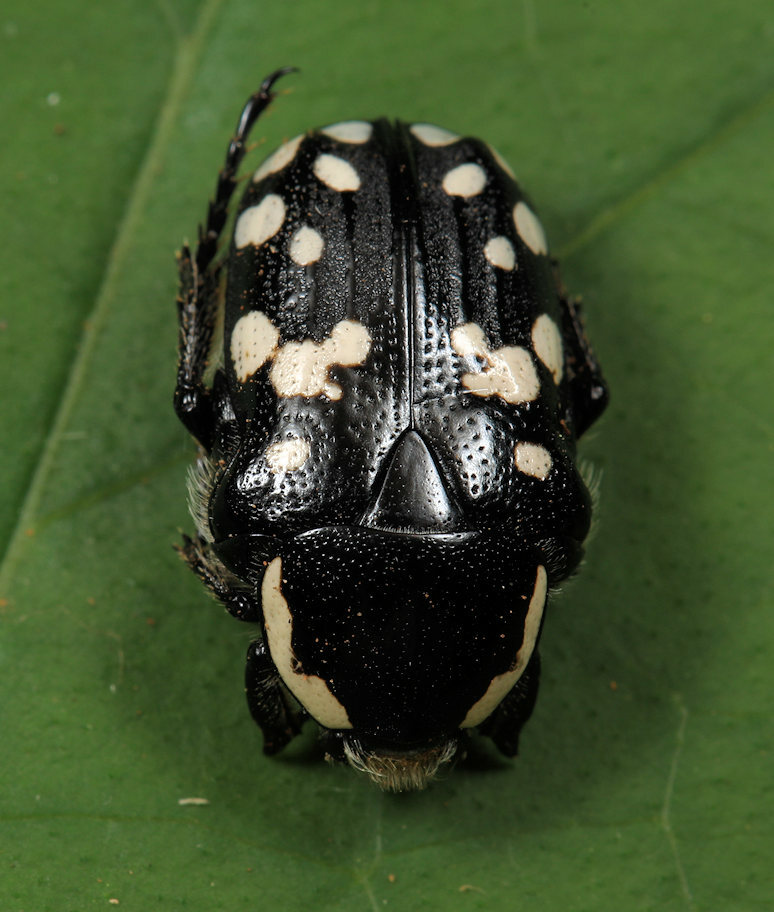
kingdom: Animalia
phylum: Arthropoda
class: Insecta
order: Coleoptera
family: Scarabaeidae
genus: Phoxomela
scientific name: Phoxomela umbrosa
